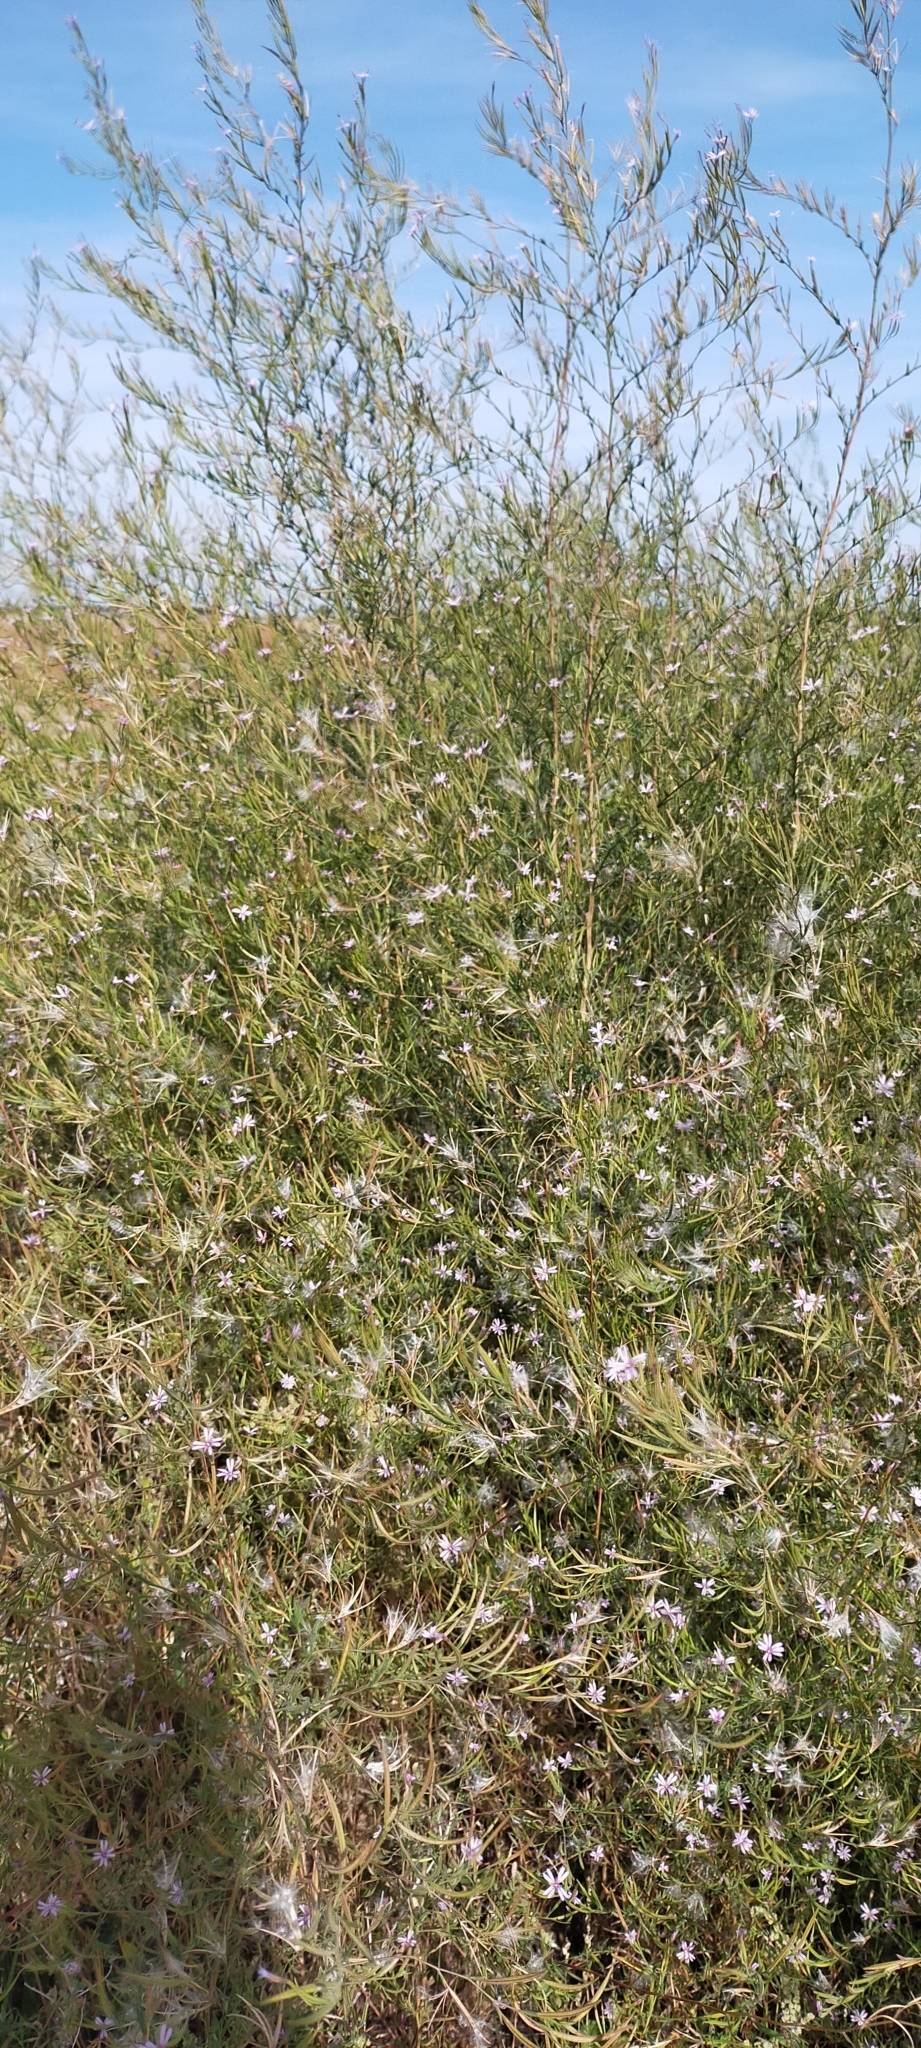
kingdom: Plantae
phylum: Tracheophyta
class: Magnoliopsida
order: Myrtales
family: Onagraceae
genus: Epilobium
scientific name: Epilobium brachycarpum
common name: Annual willowherb
